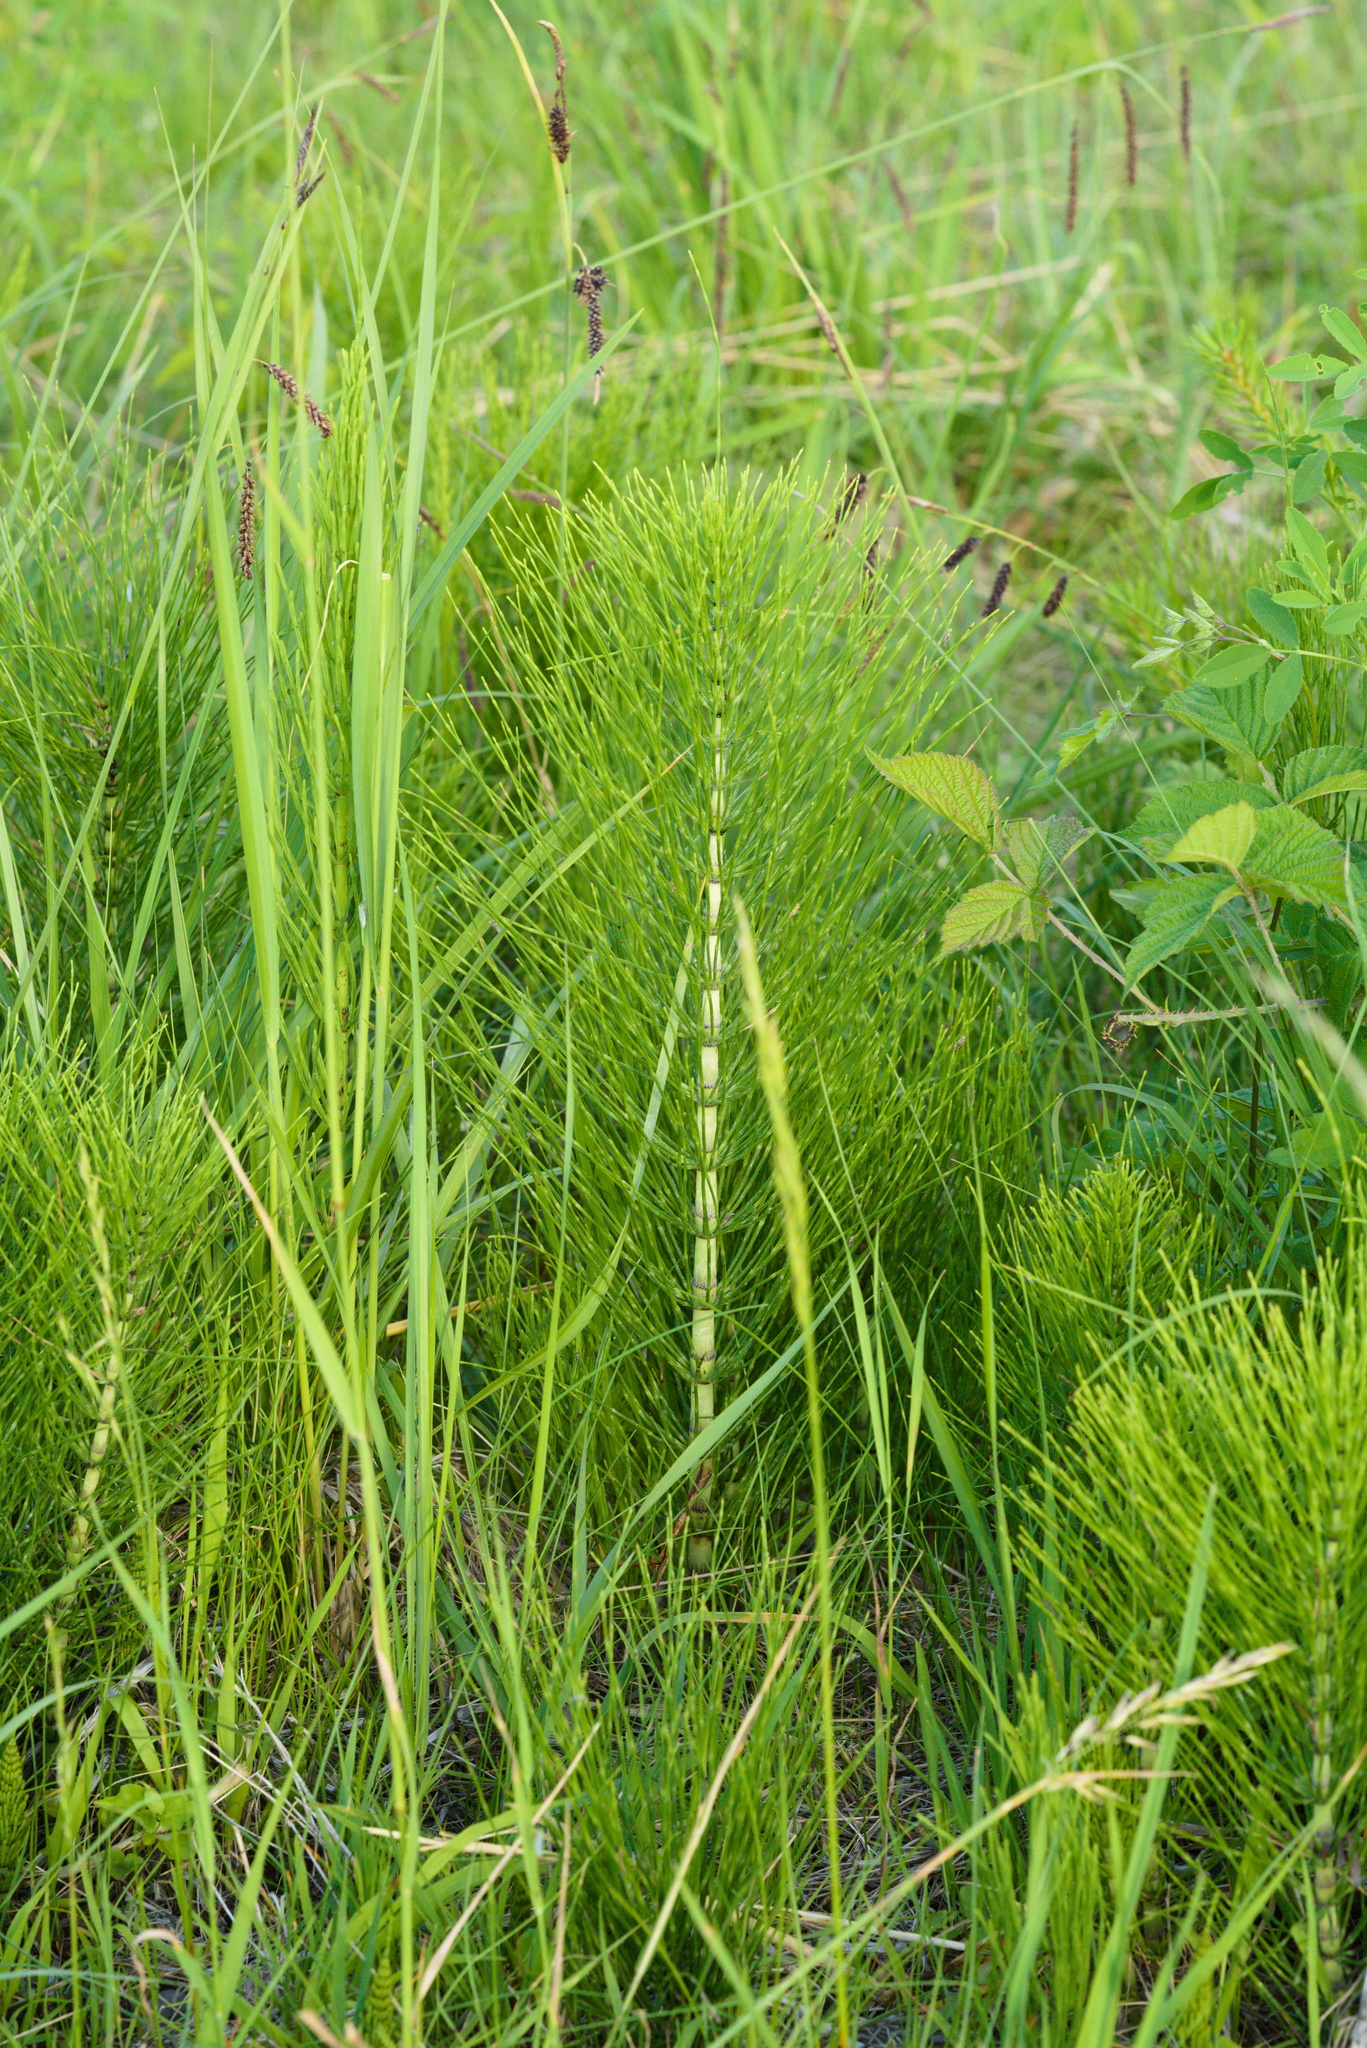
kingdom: Plantae
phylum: Tracheophyta
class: Polypodiopsida
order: Equisetales
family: Equisetaceae
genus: Equisetum
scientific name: Equisetum telmateia
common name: Great horsetail
